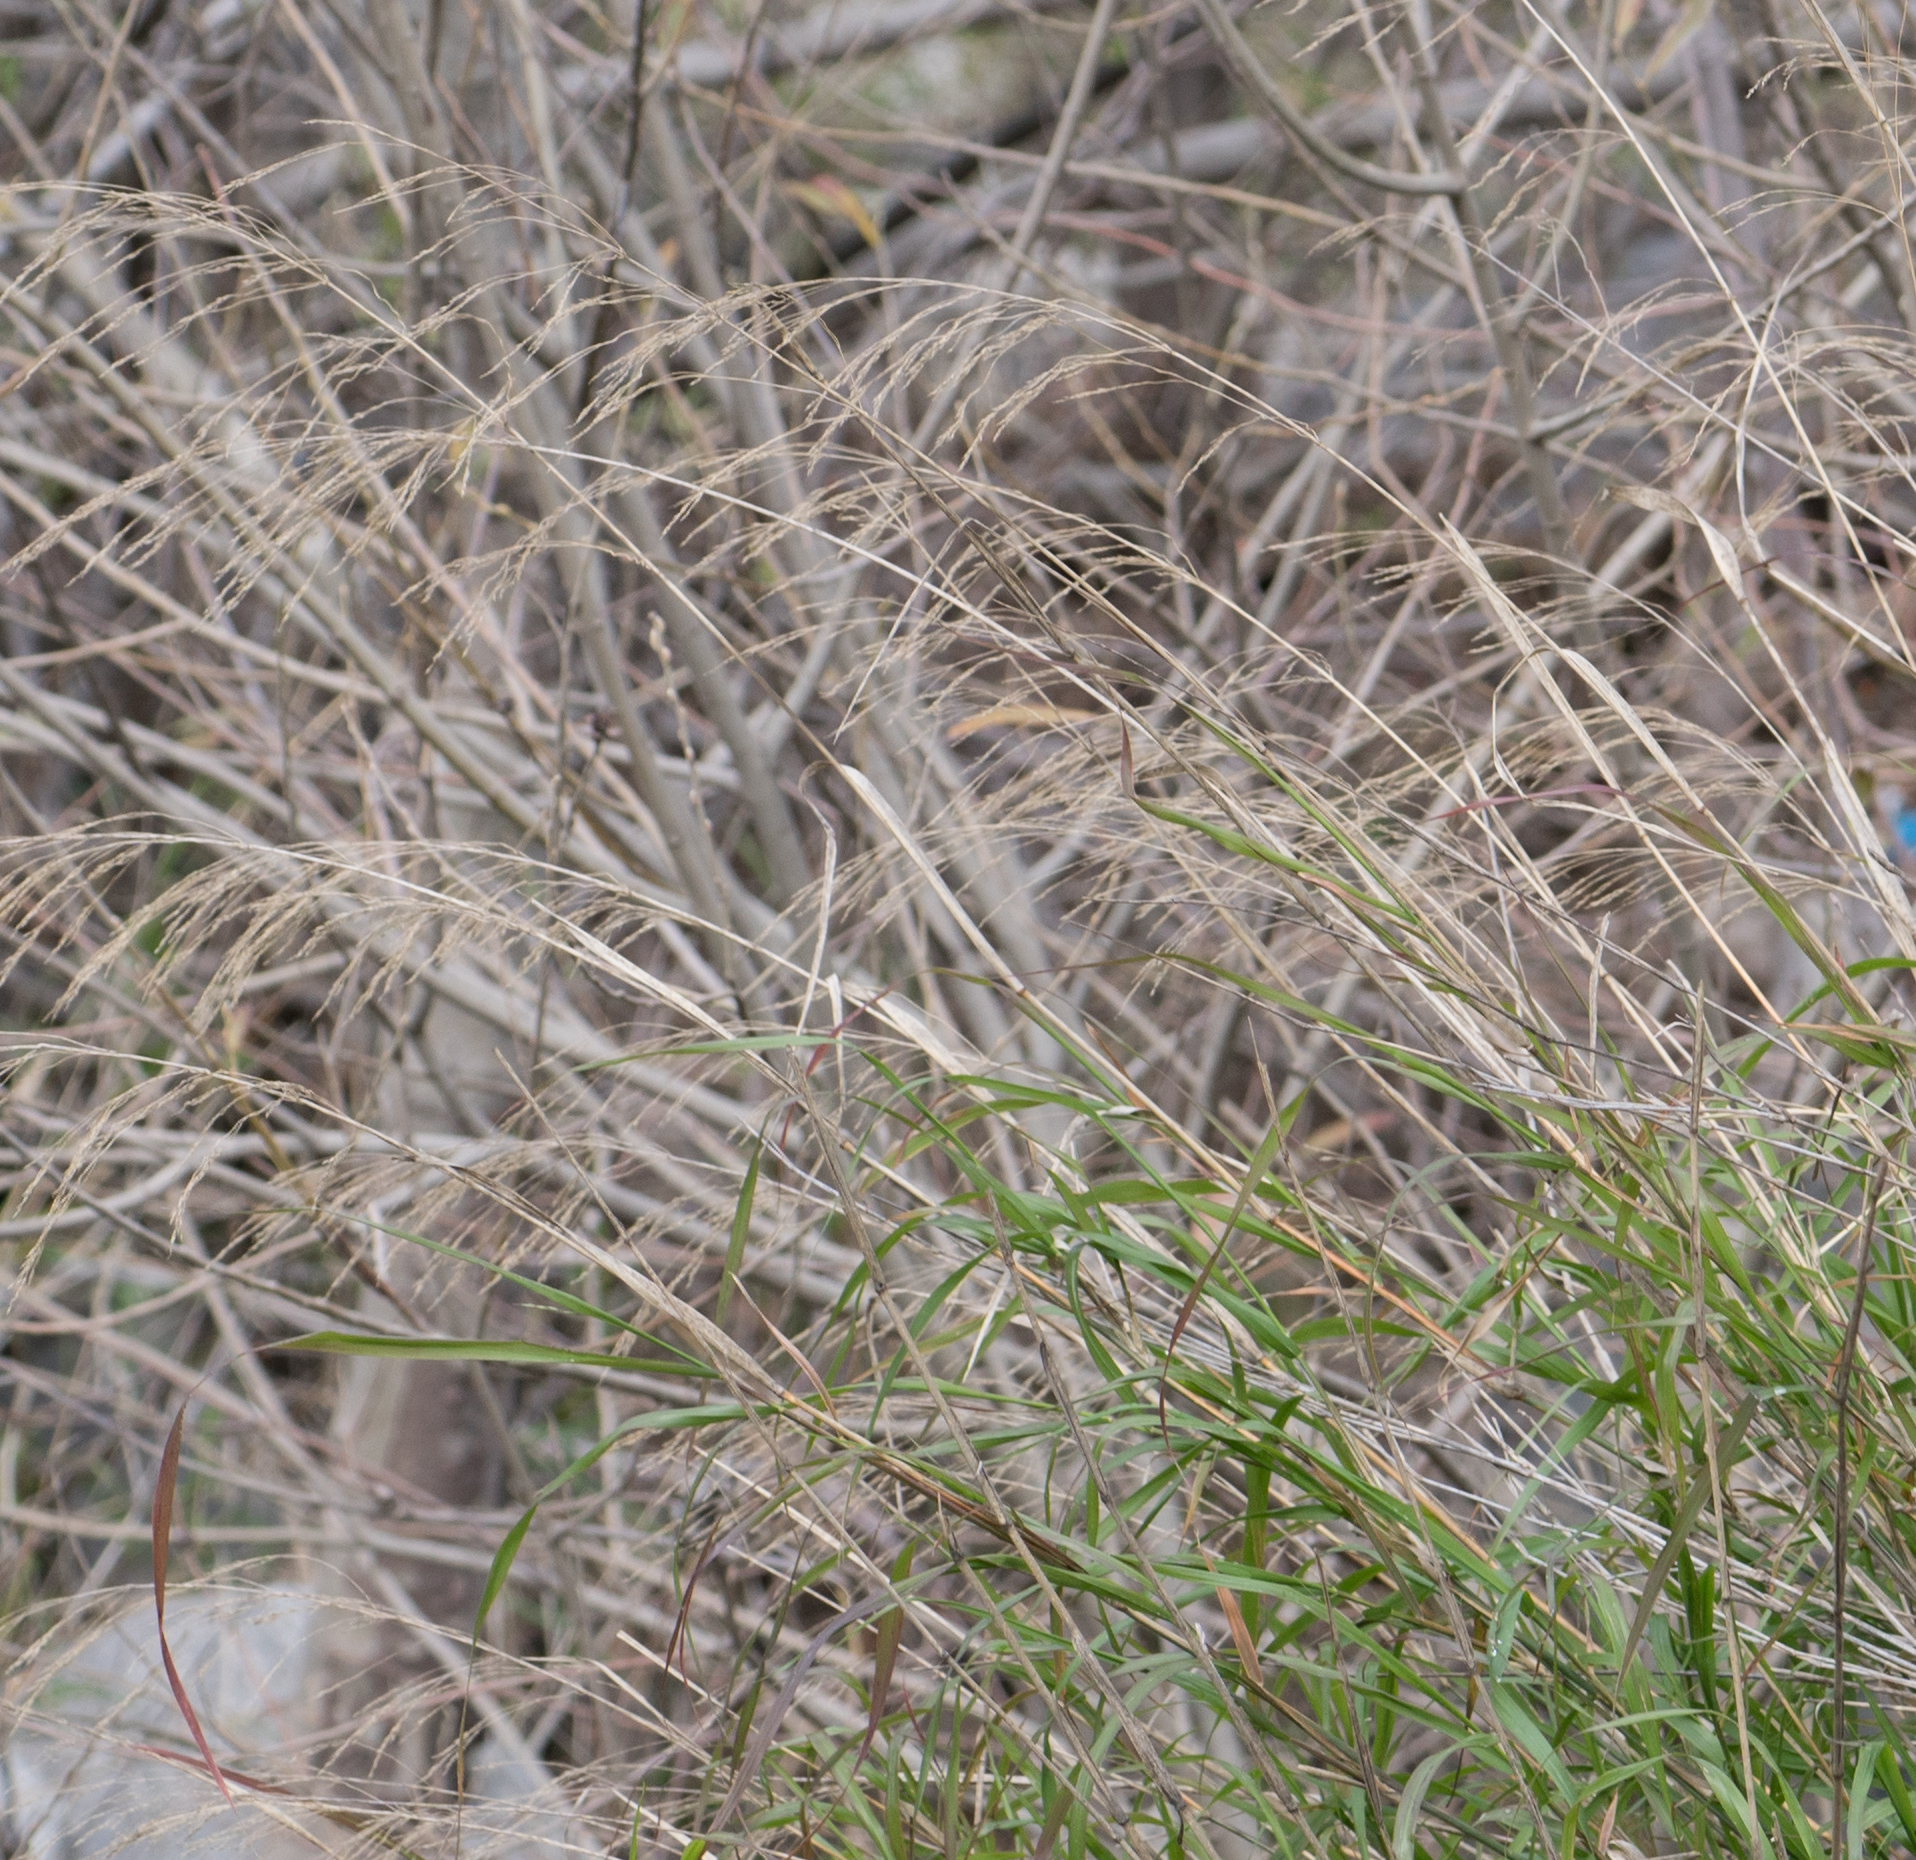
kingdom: Plantae
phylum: Tracheophyta
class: Liliopsida
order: Poales
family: Poaceae
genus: Oloptum
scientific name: Oloptum miliaceum
